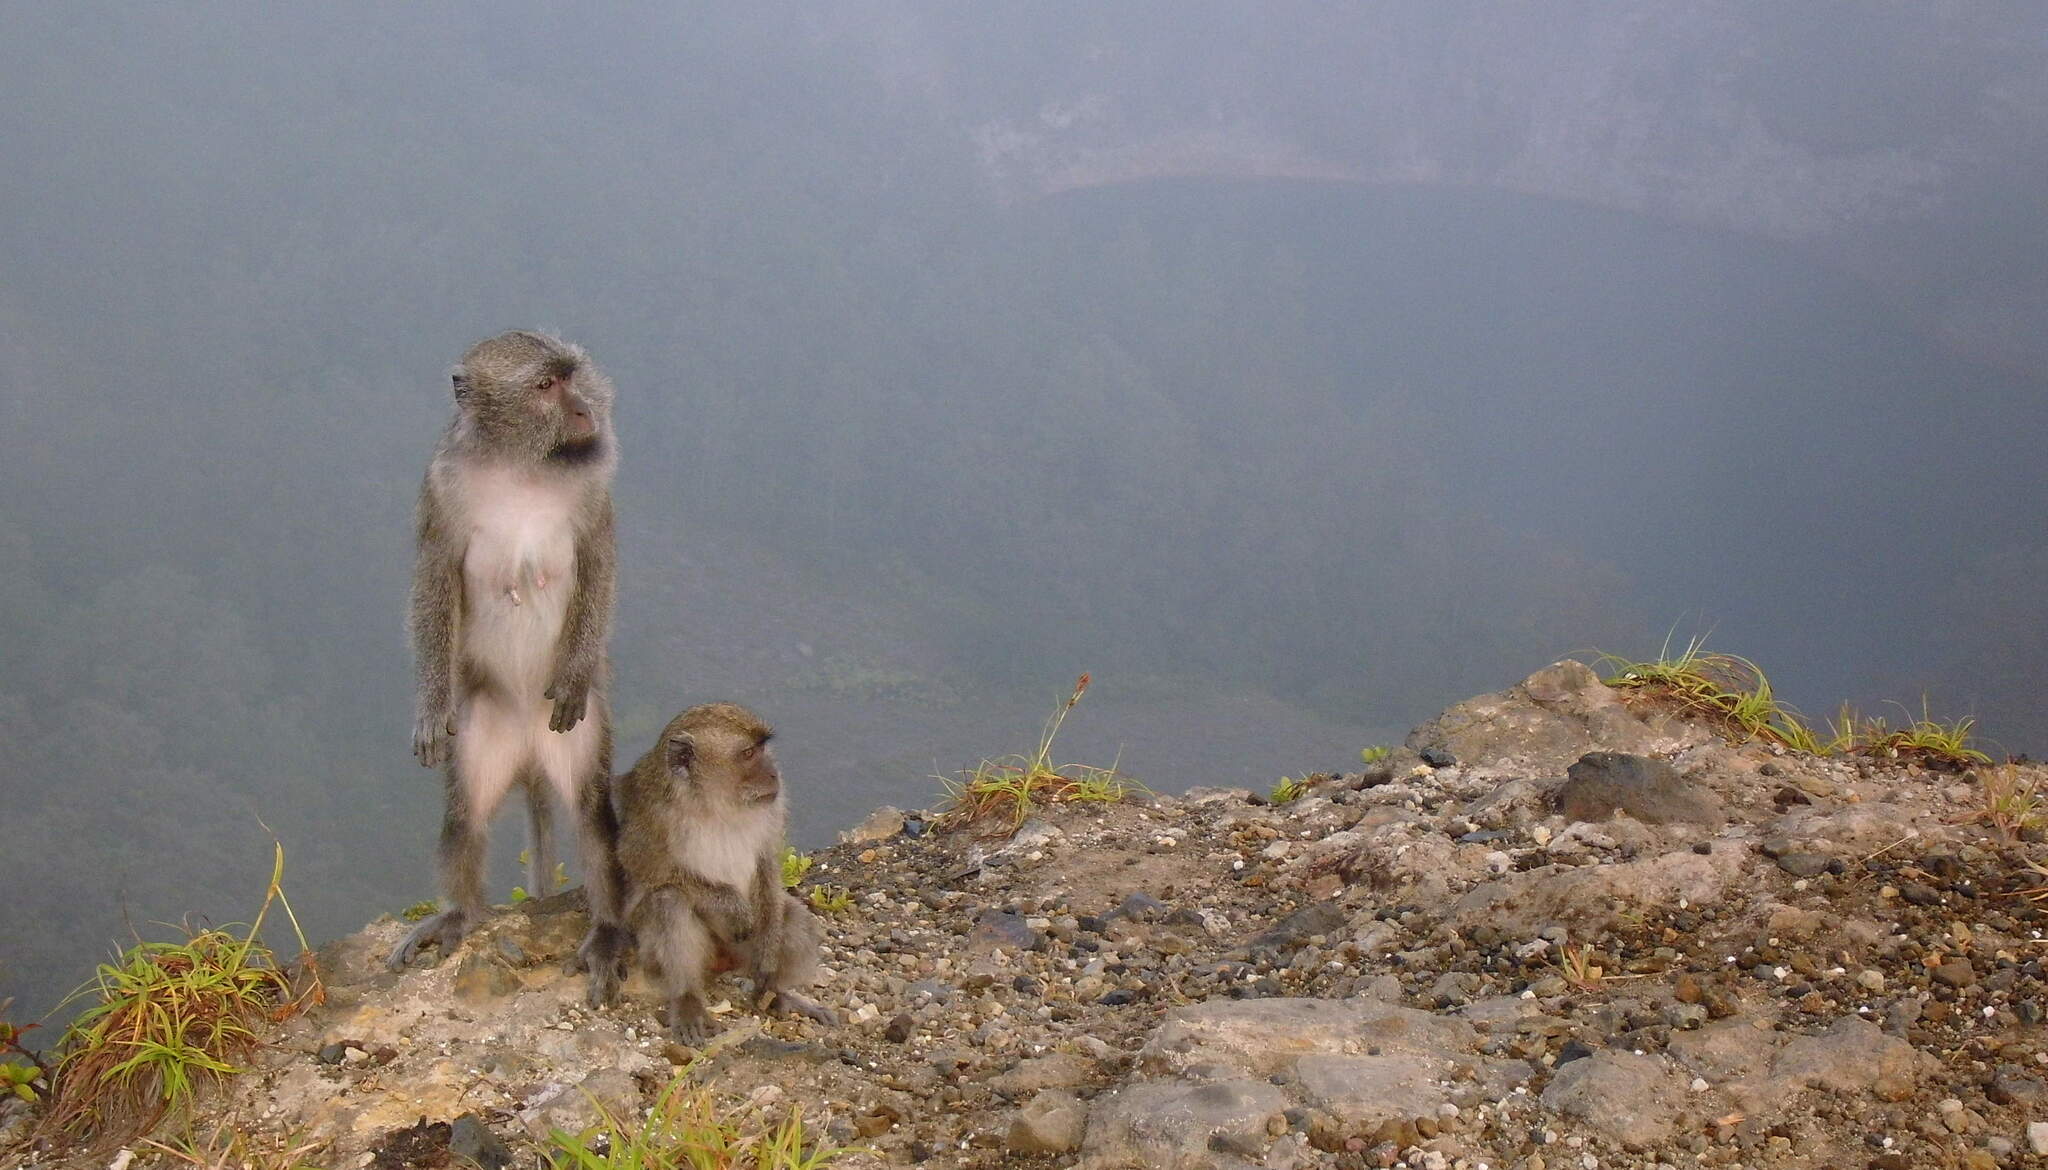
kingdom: Animalia
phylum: Chordata
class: Mammalia
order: Primates
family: Cercopithecidae
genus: Macaca
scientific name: Macaca fascicularis
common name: Crab-eating macaque
